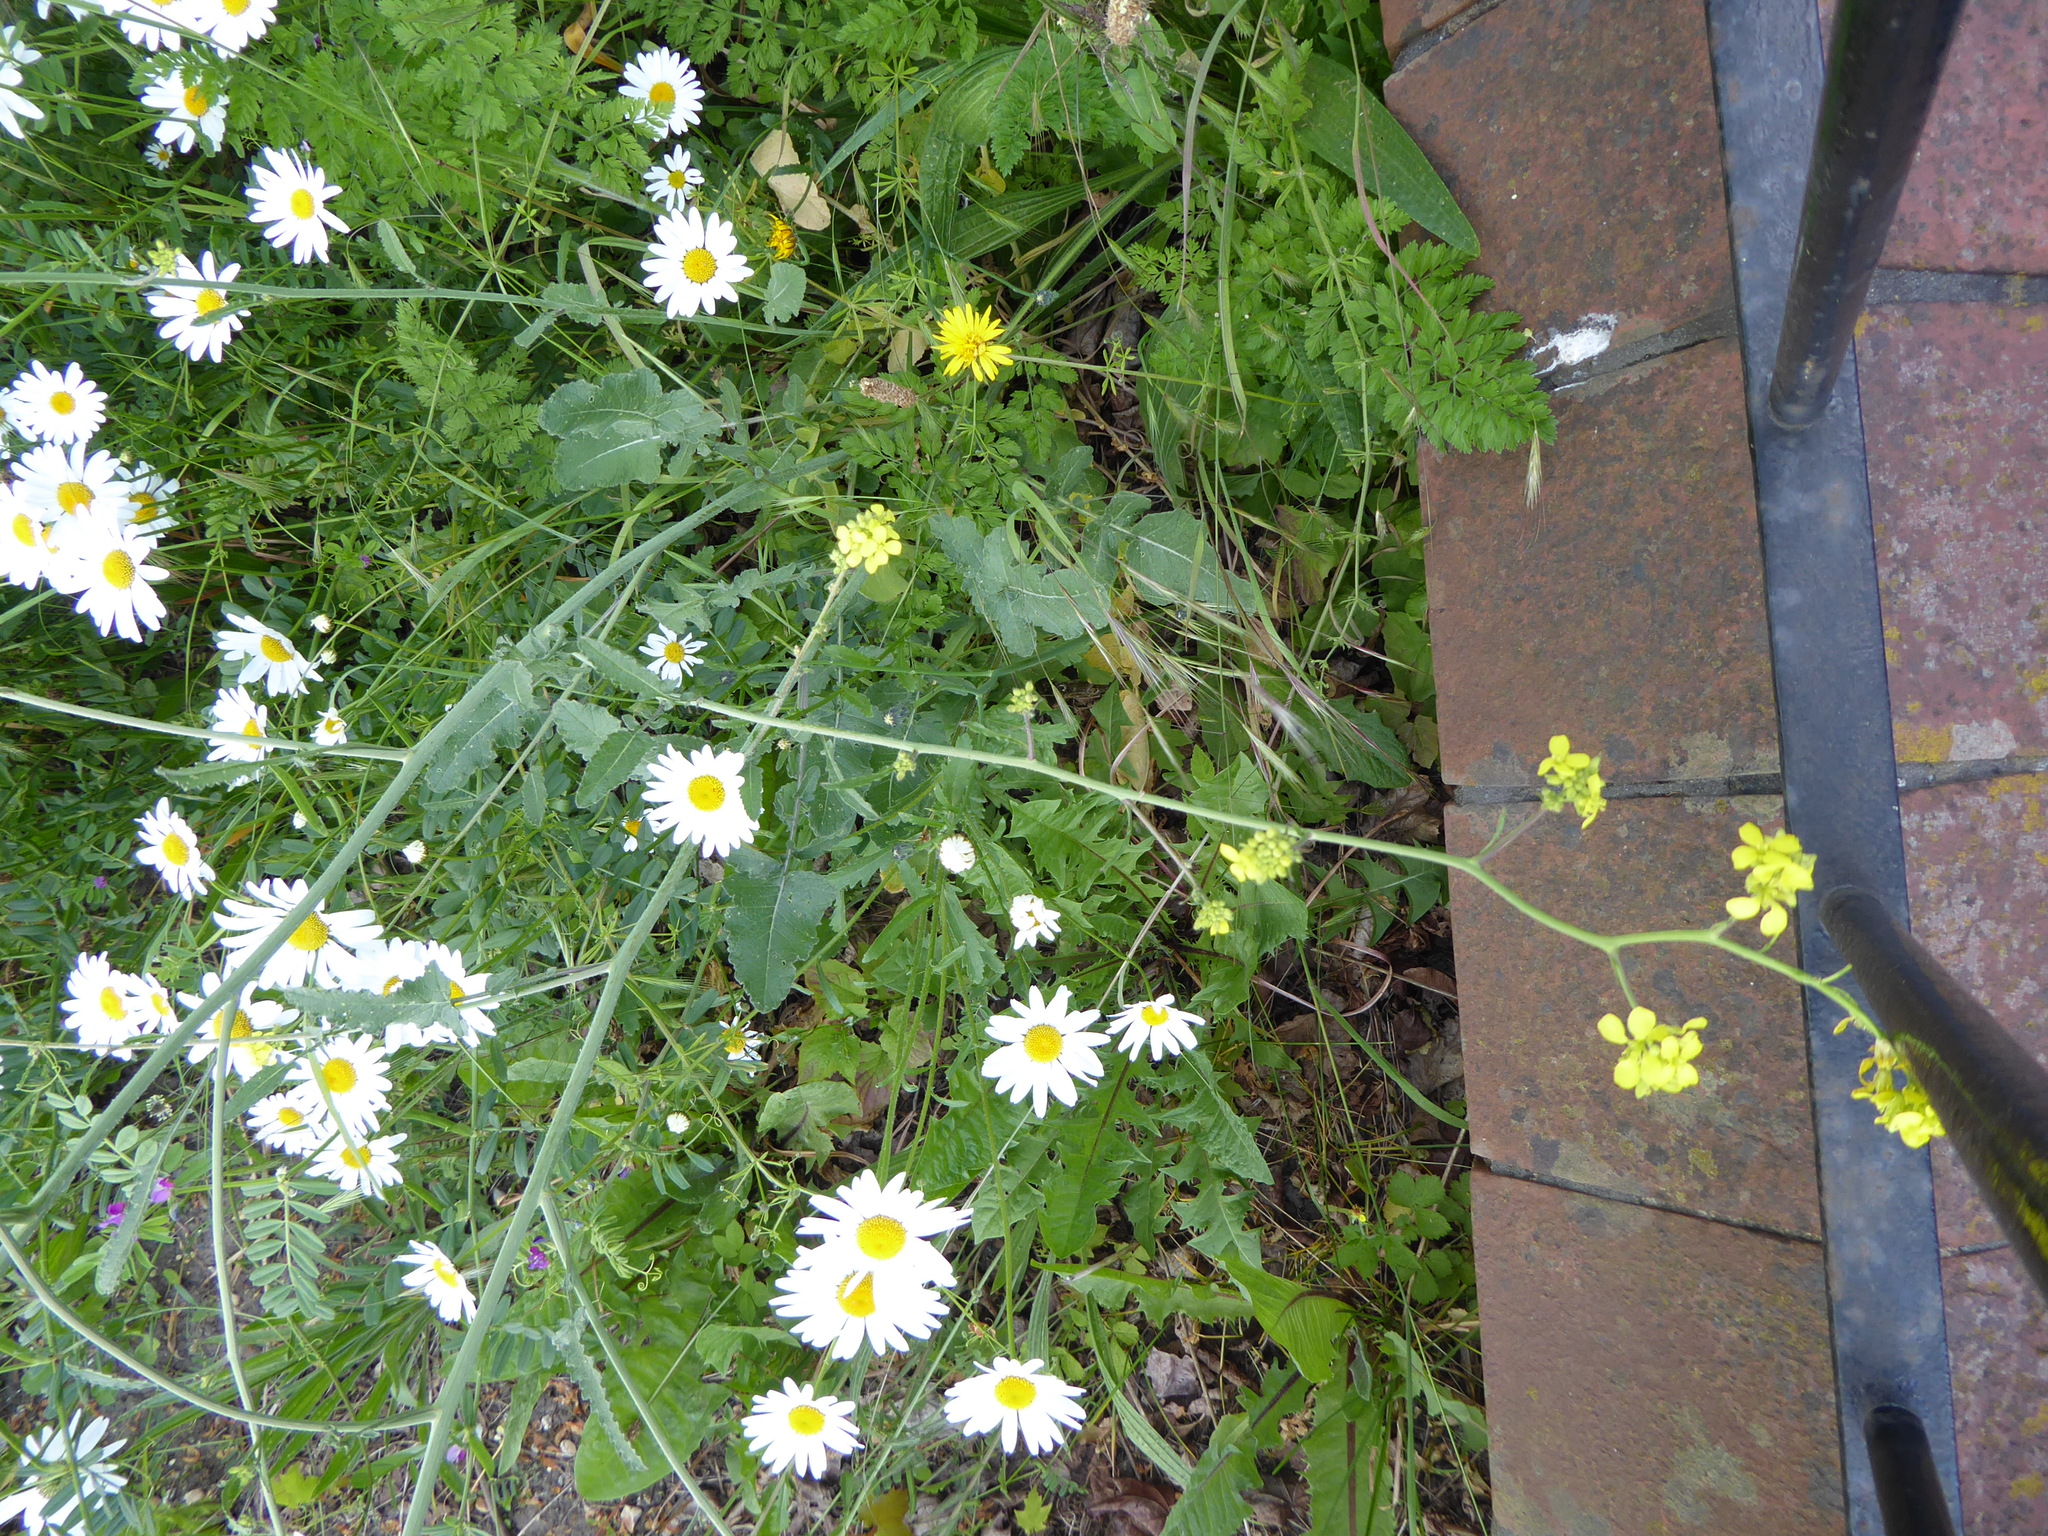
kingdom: Plantae
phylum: Tracheophyta
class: Magnoliopsida
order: Brassicales
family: Brassicaceae
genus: Hirschfeldia
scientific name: Hirschfeldia incana
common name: Hoary mustard
